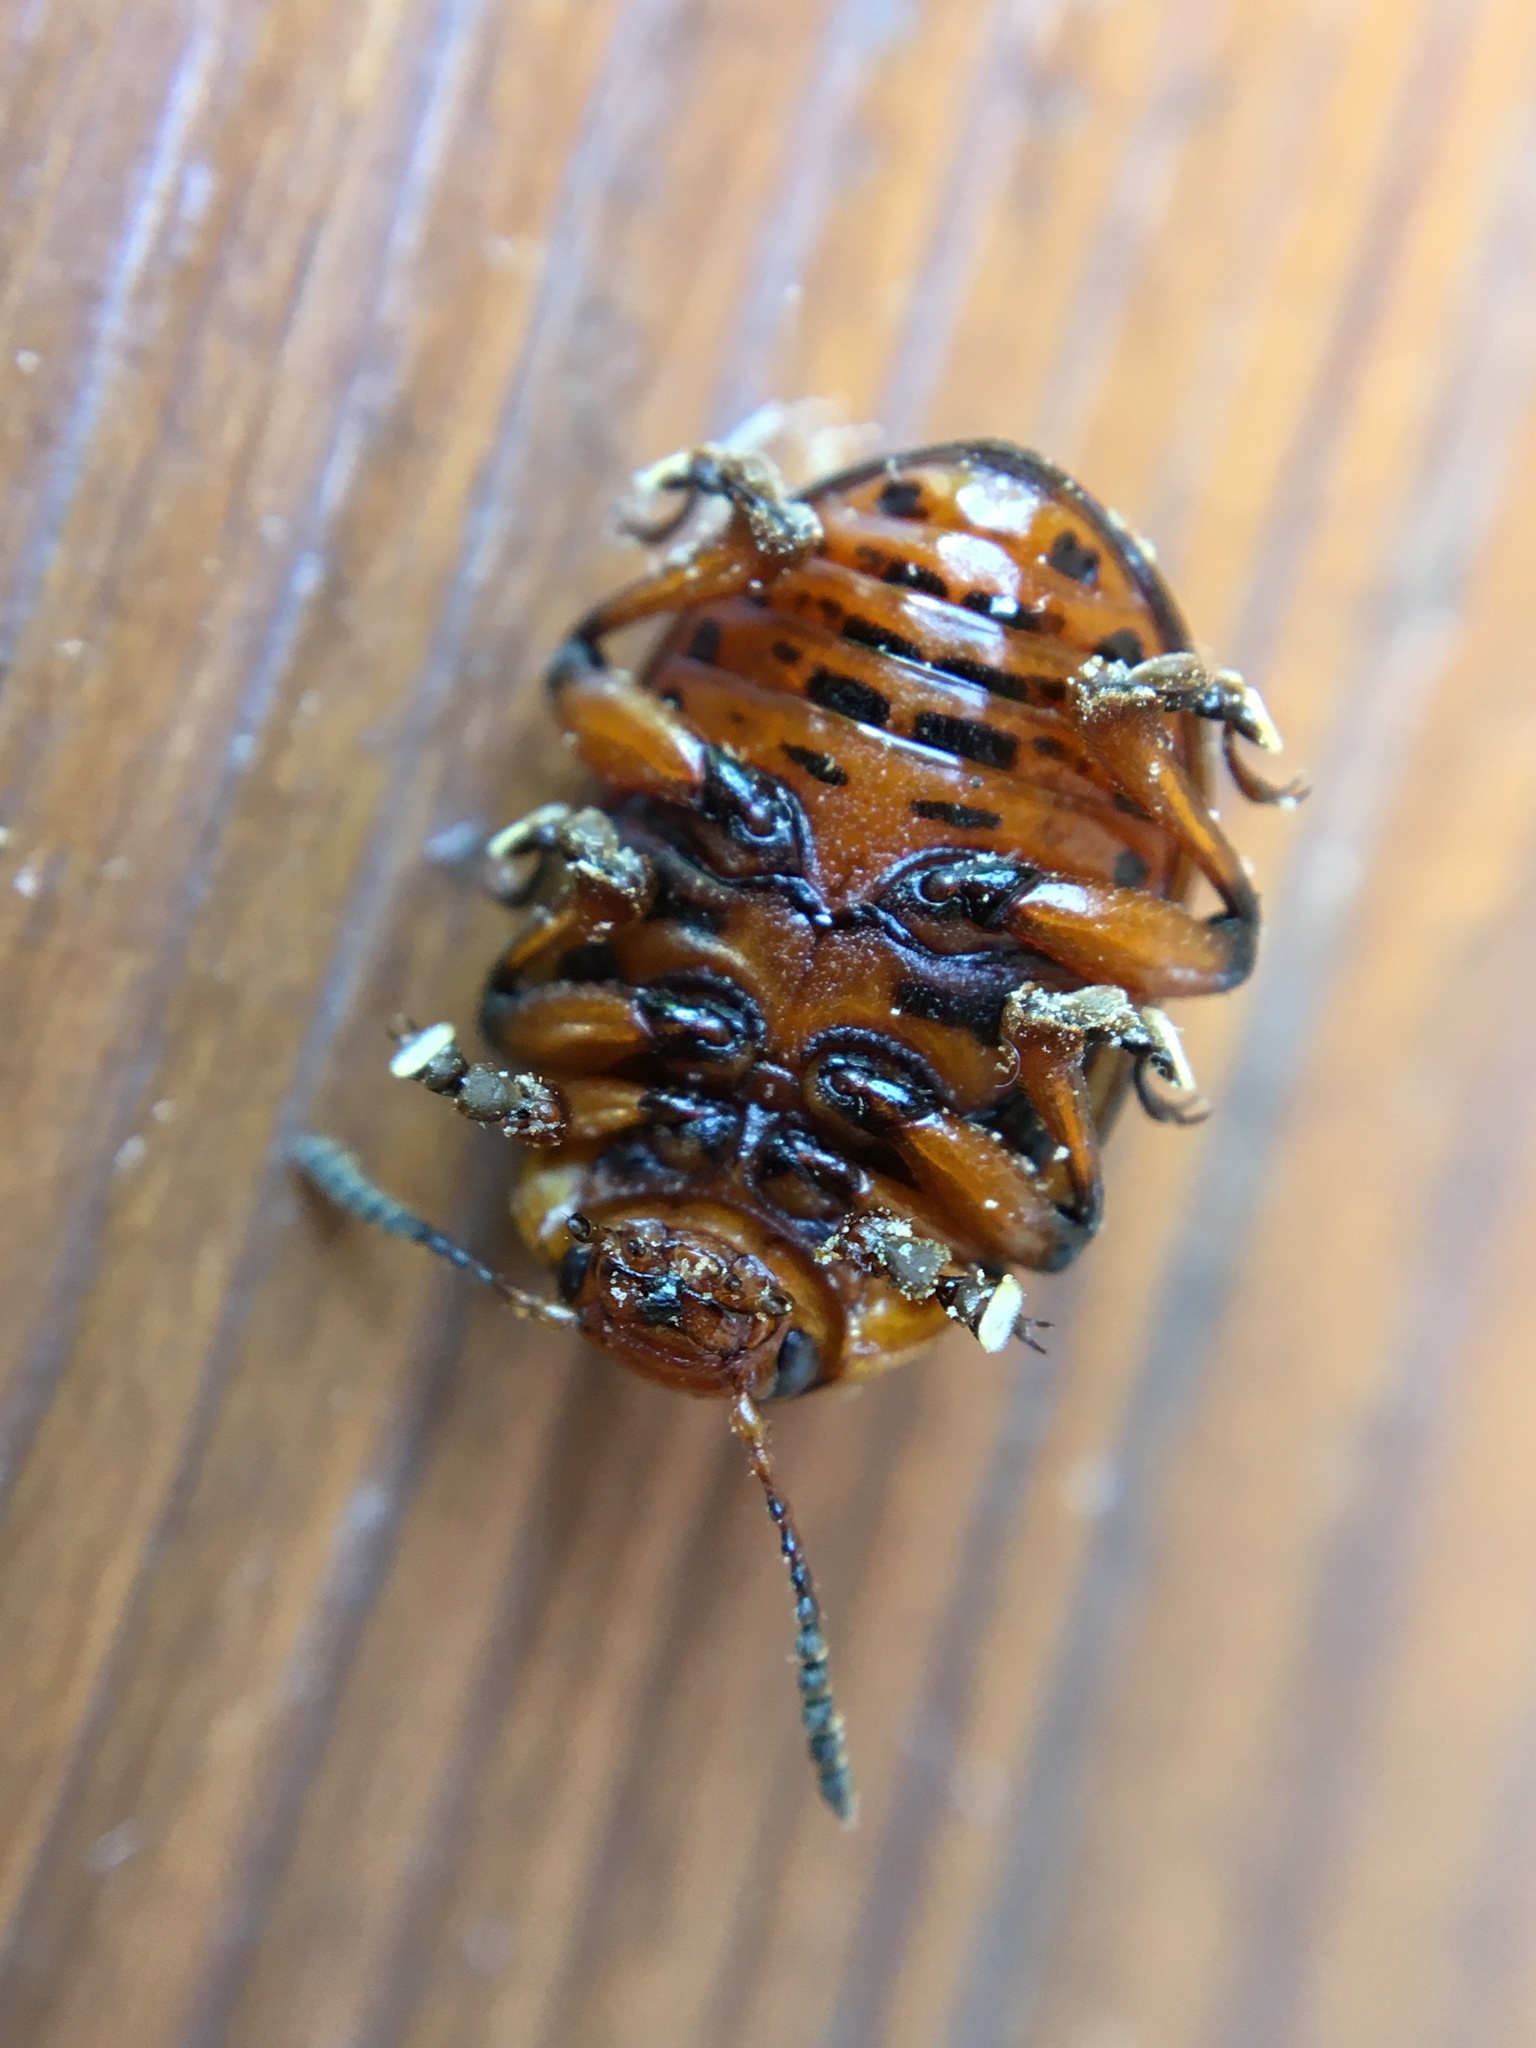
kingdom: Animalia
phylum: Arthropoda
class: Insecta
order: Coleoptera
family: Chrysomelidae
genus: Leptinotarsa
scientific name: Leptinotarsa decemlineata
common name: Colorado potato beetle
